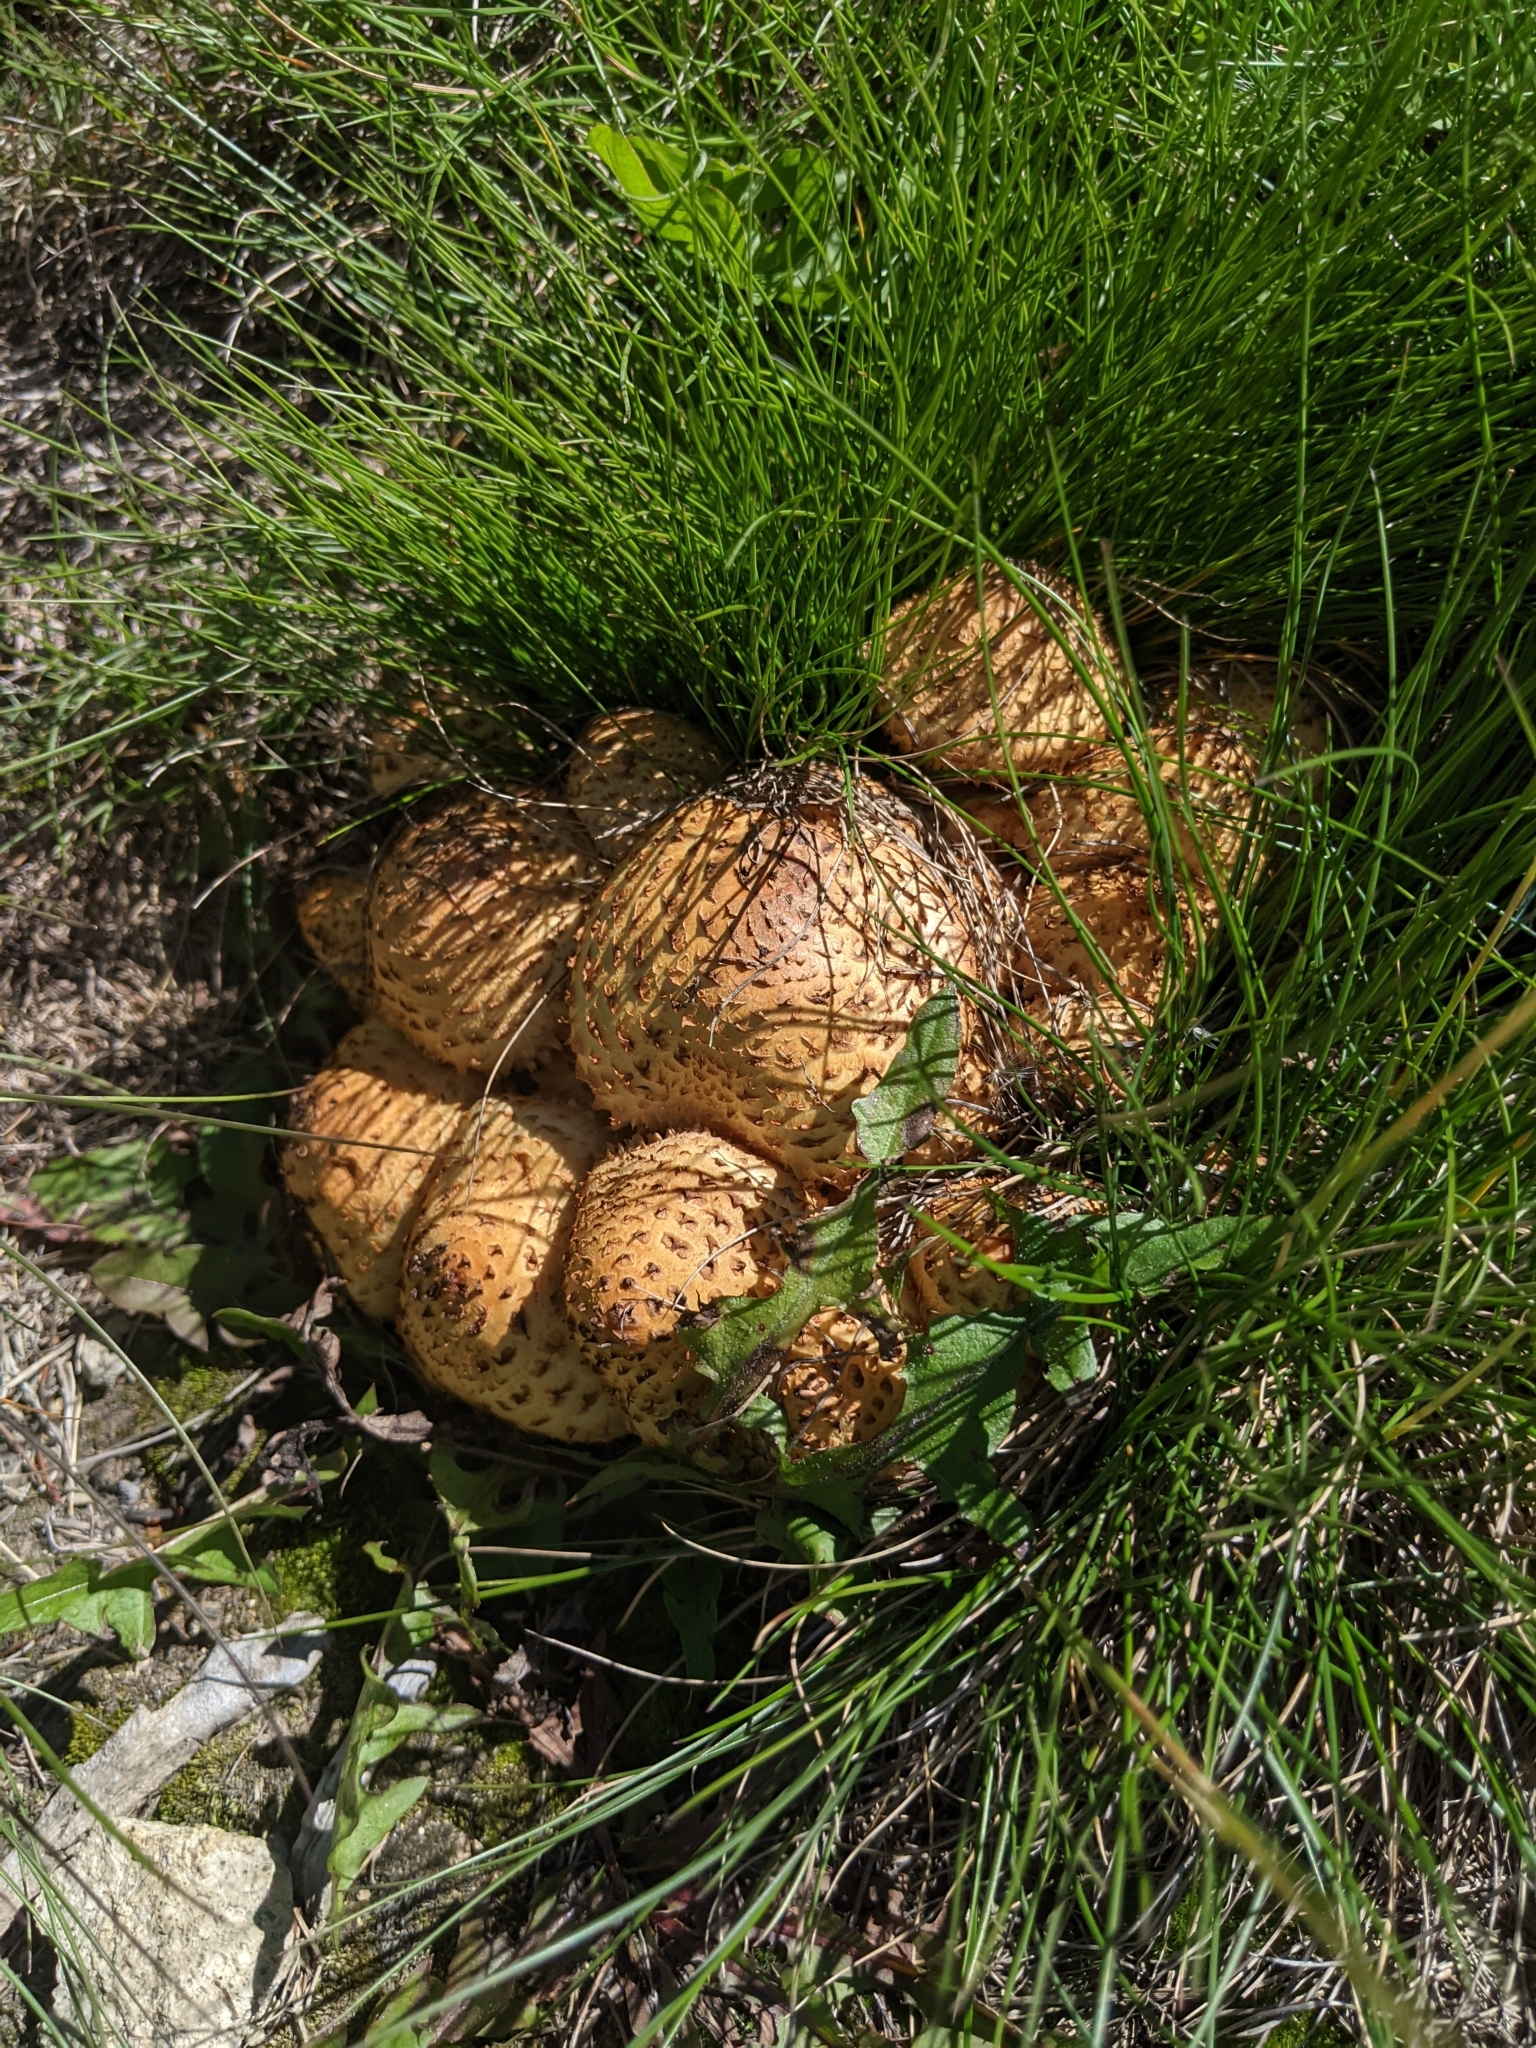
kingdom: Fungi
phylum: Basidiomycota
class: Agaricomycetes
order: Agaricales
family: Strophariaceae
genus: Pholiota
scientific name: Pholiota squarrosa
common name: Shaggy pholiota
